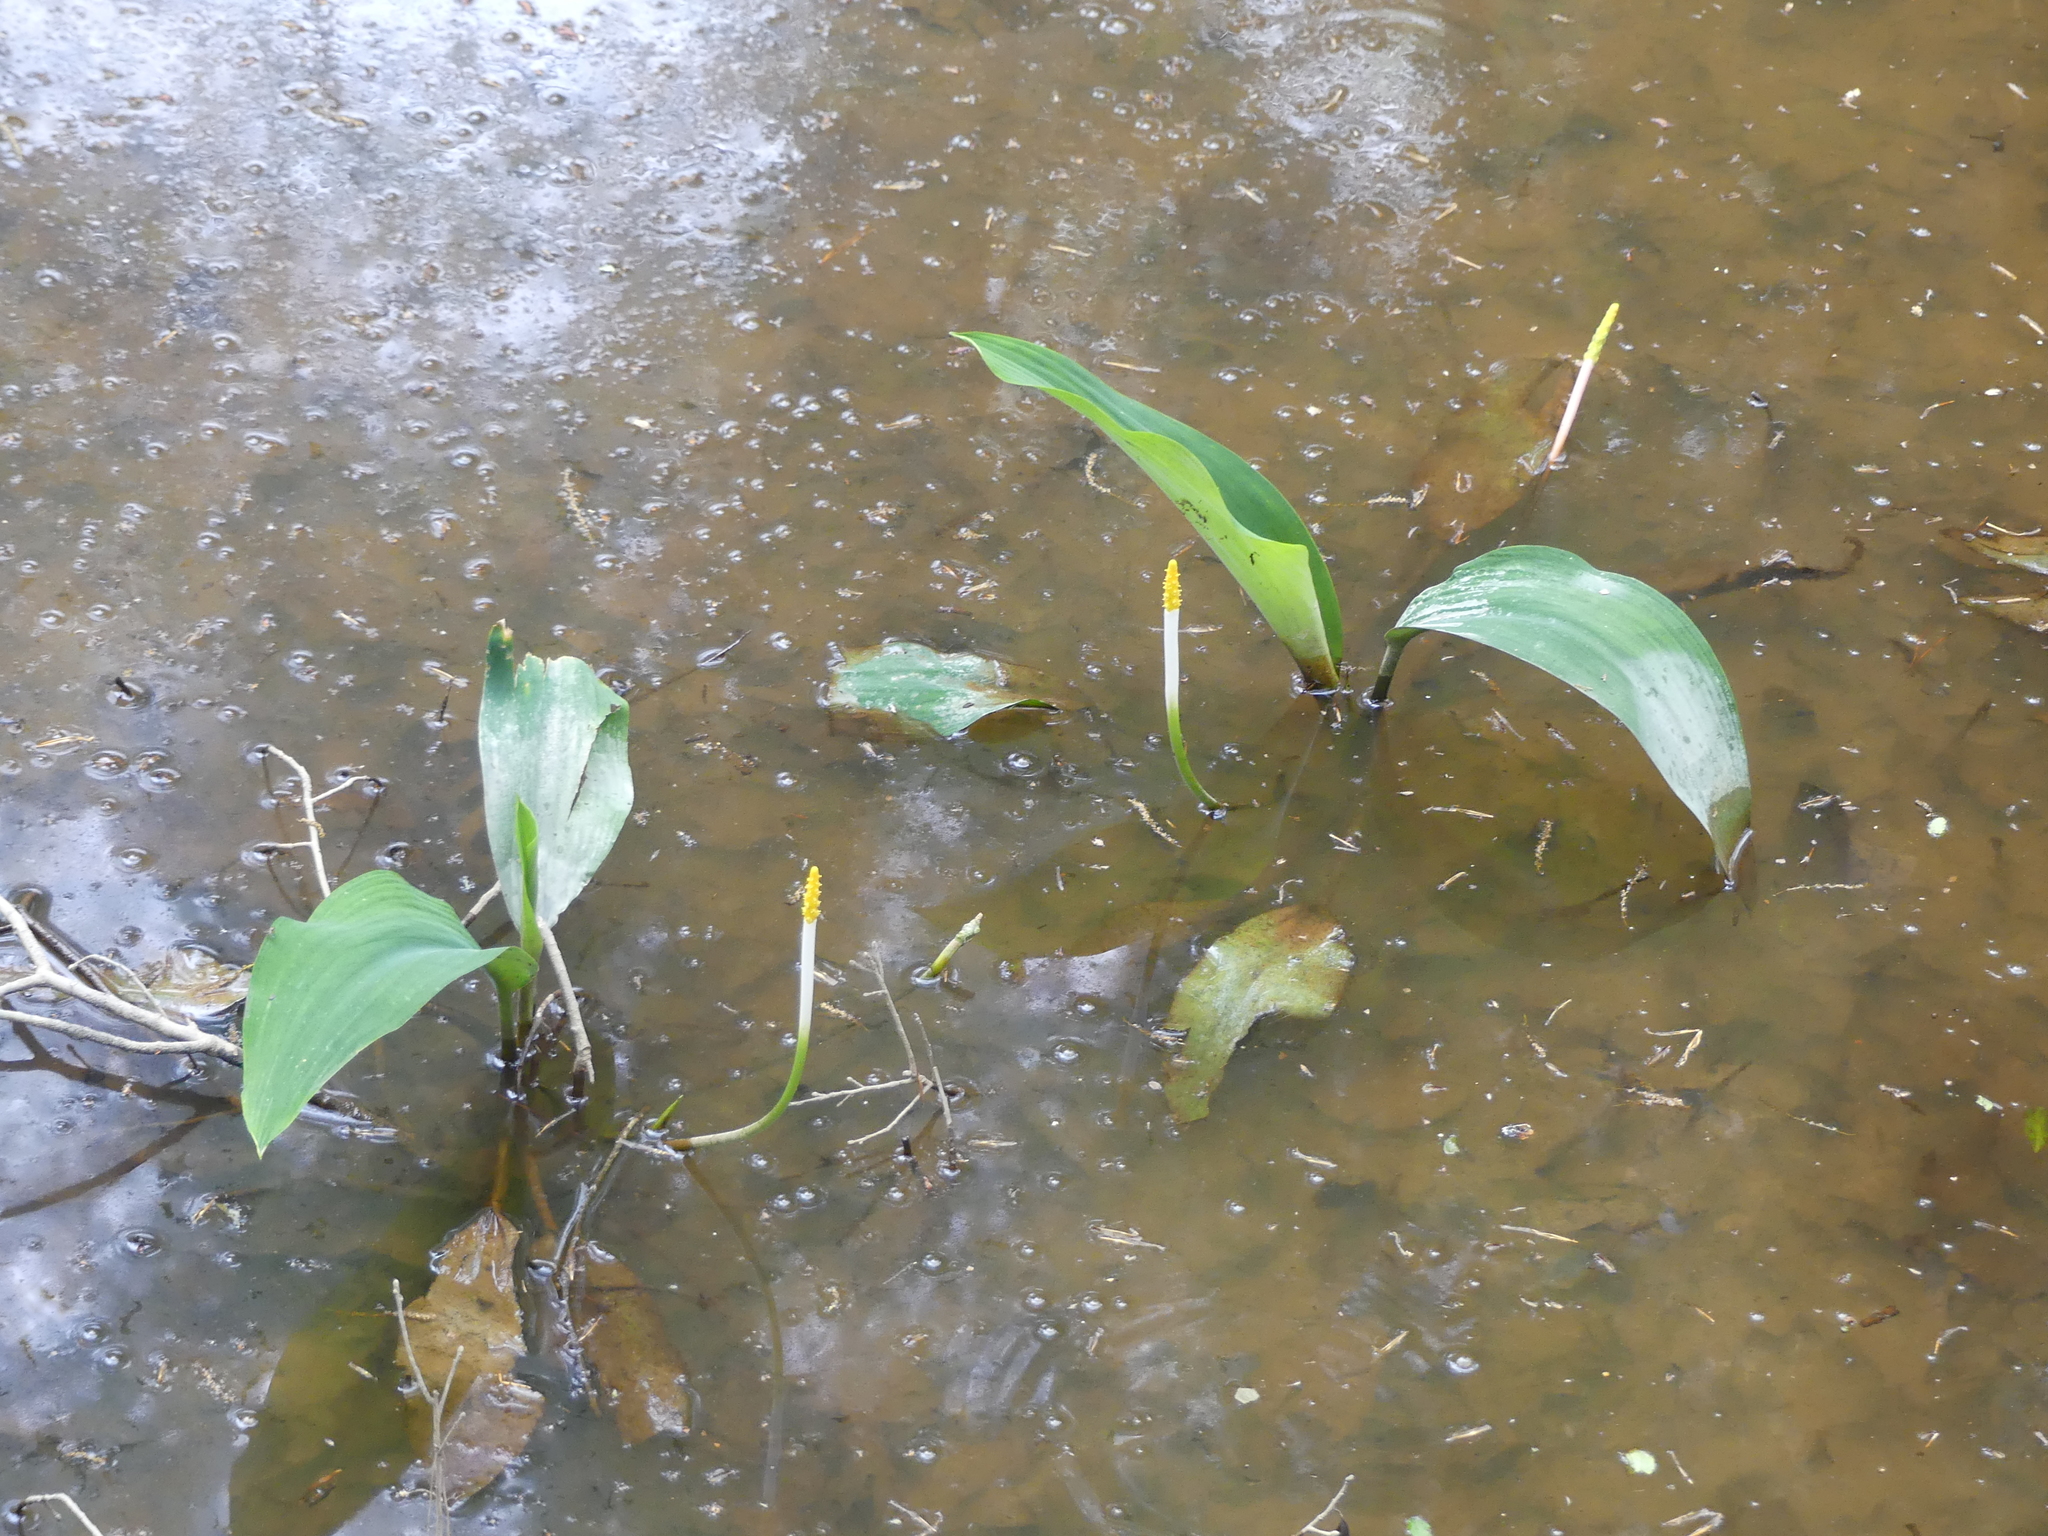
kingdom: Plantae
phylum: Tracheophyta
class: Liliopsida
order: Alismatales
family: Araceae
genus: Orontium
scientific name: Orontium aquaticum
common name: Golden-club
